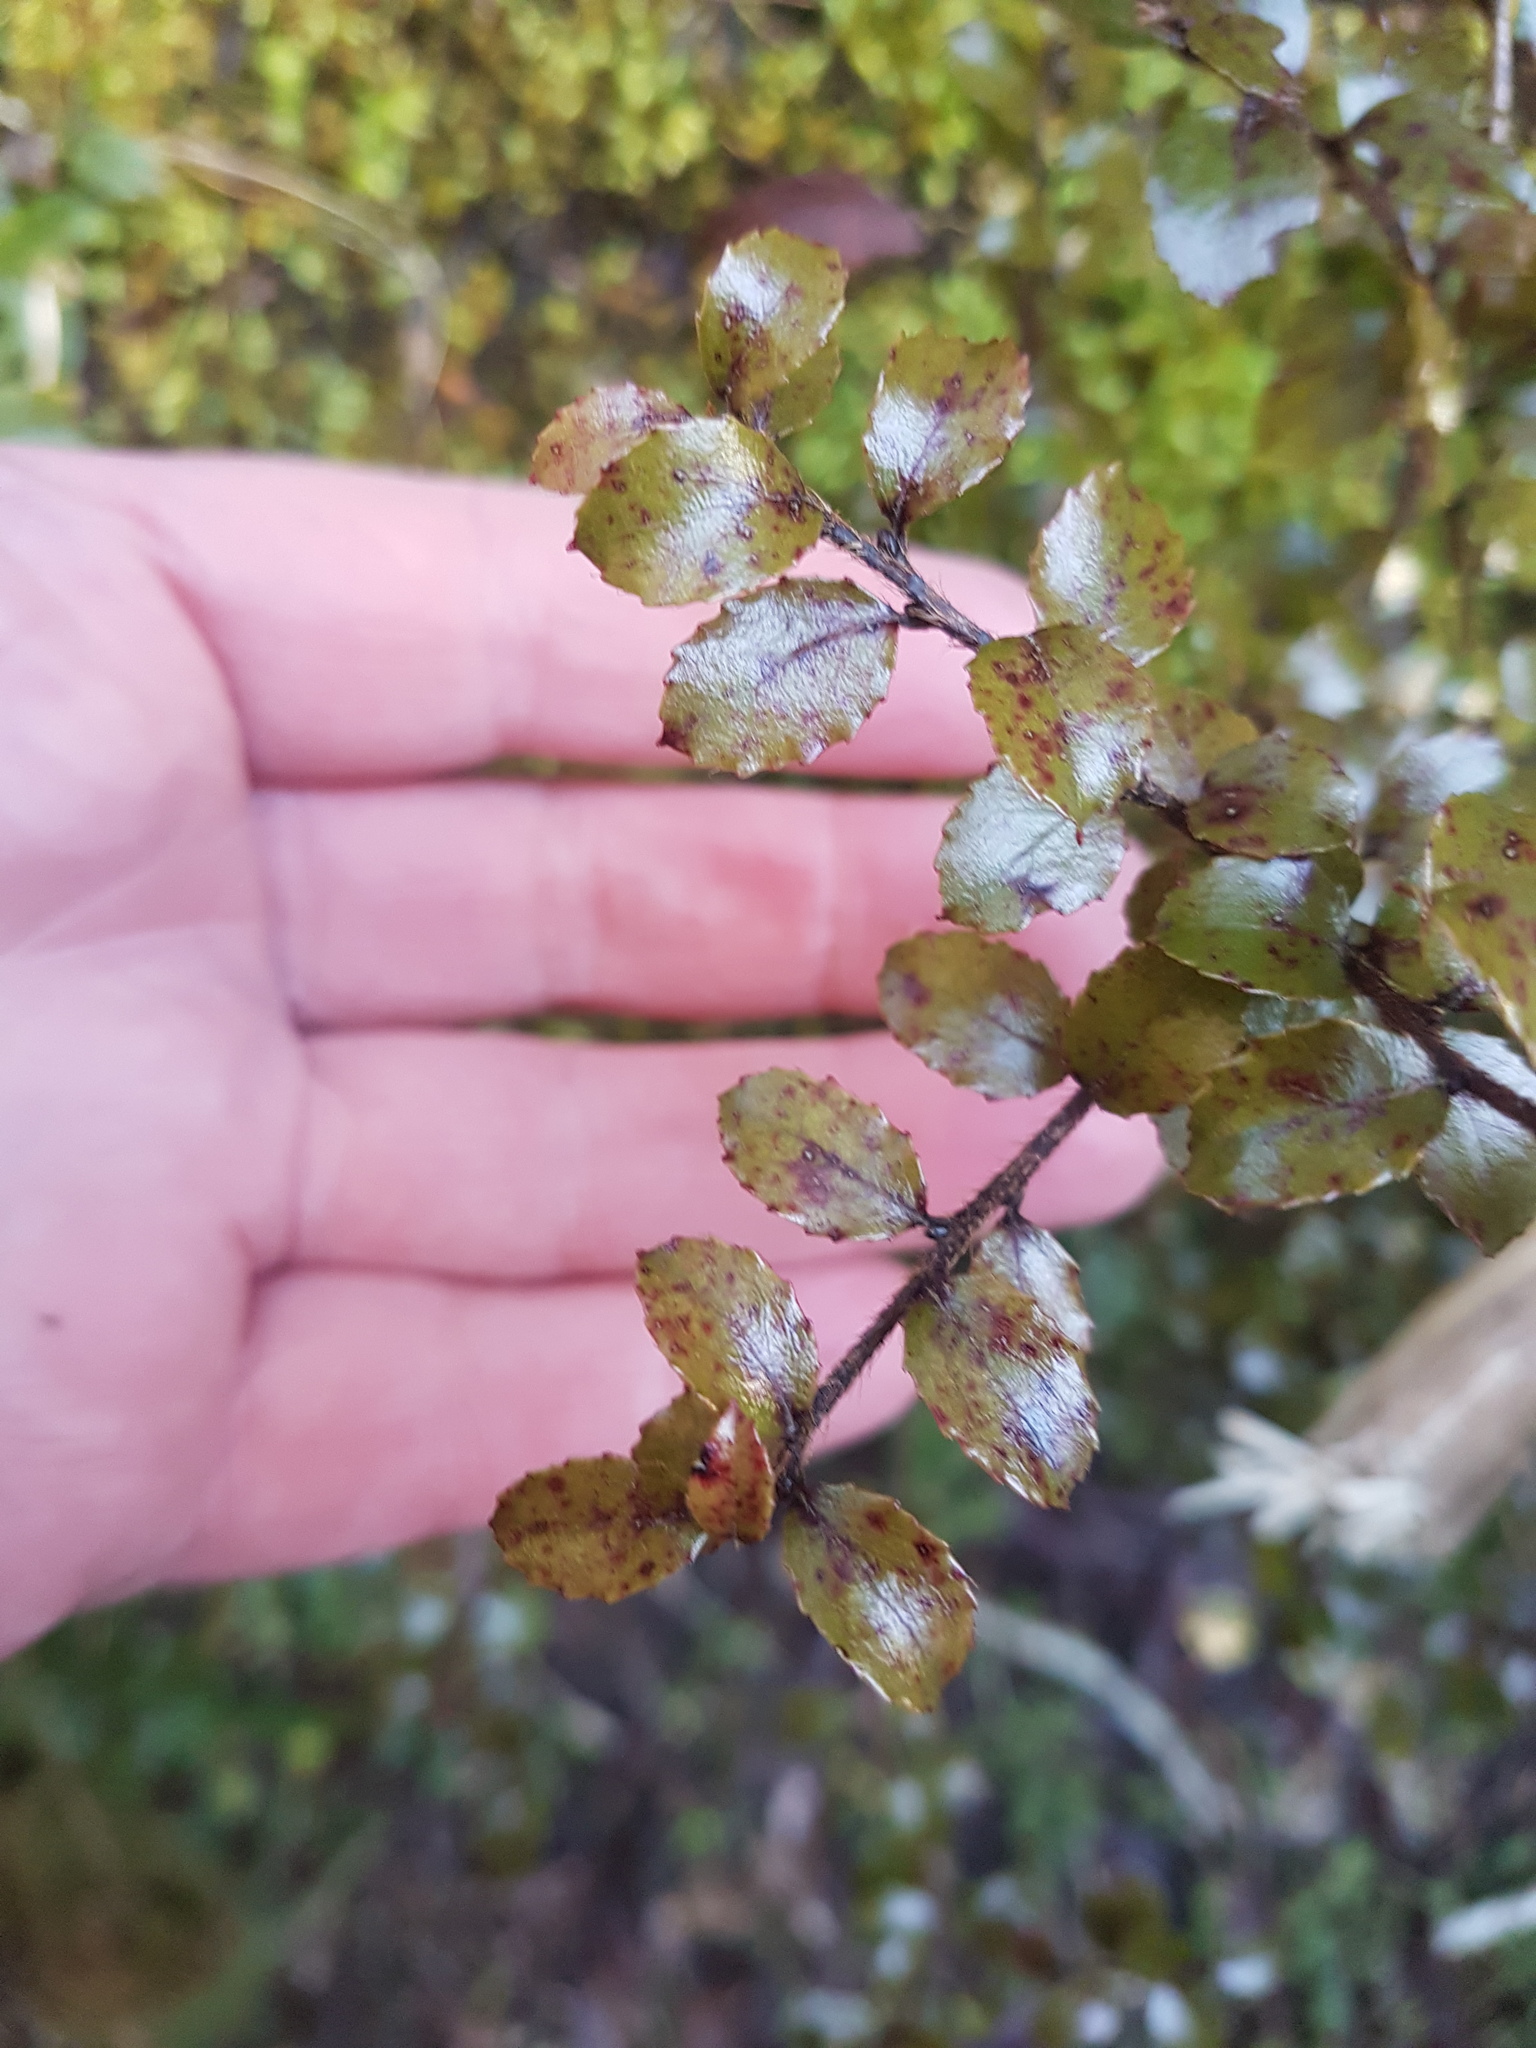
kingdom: Plantae
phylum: Tracheophyta
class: Magnoliopsida
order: Ericales
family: Ericaceae
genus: Gaultheria
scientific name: Gaultheria antipoda
